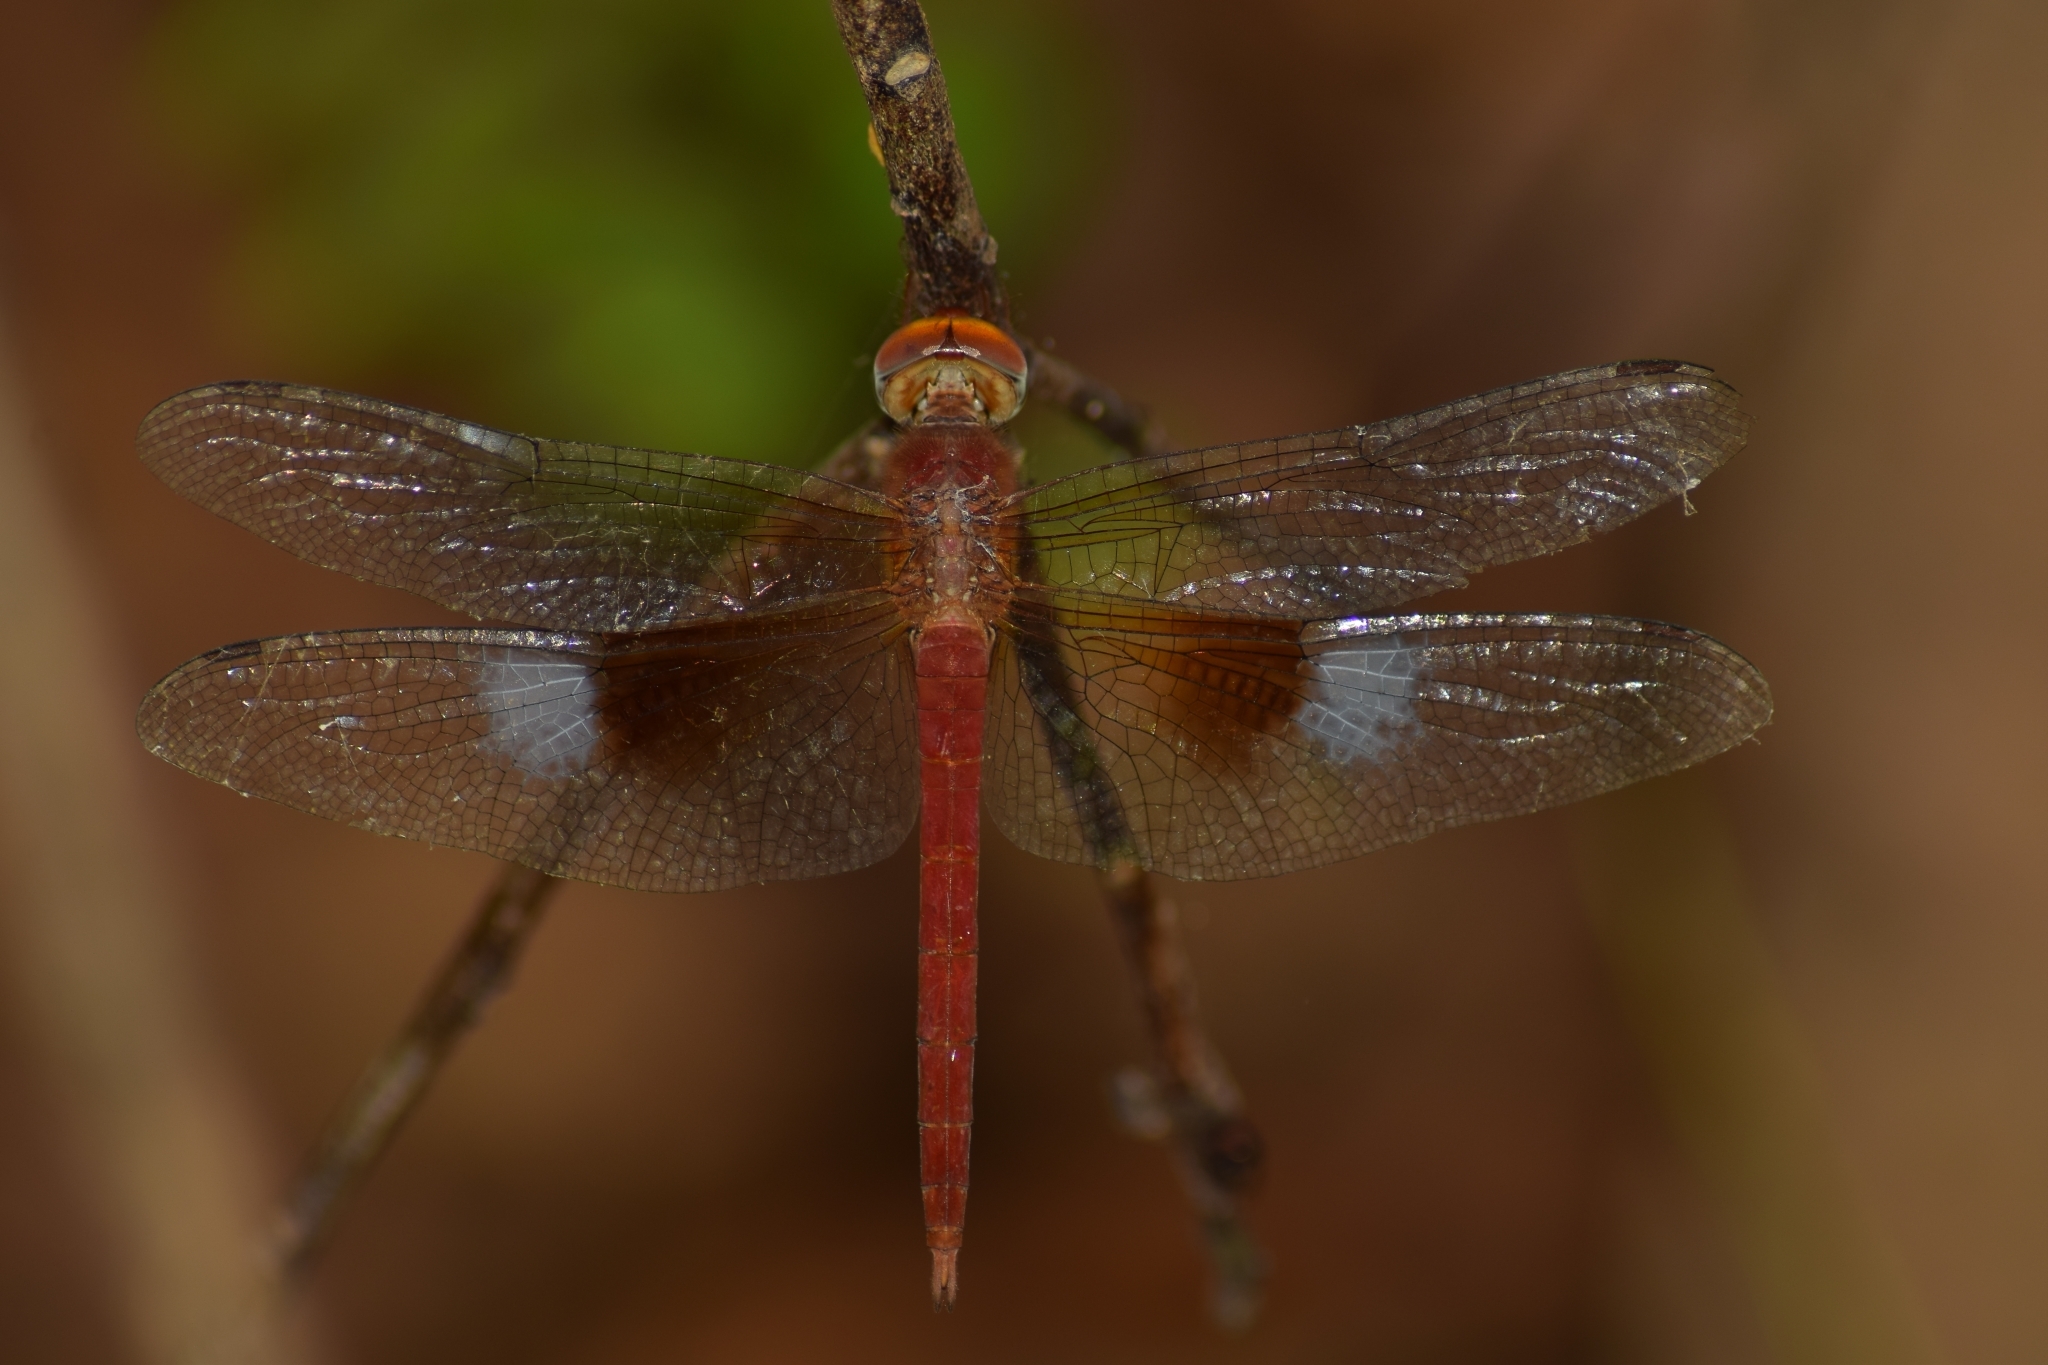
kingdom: Animalia
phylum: Arthropoda
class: Insecta
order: Odonata
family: Libellulidae
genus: Tholymis
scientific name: Tholymis tillarga
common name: Coral-tailed cloud wing
